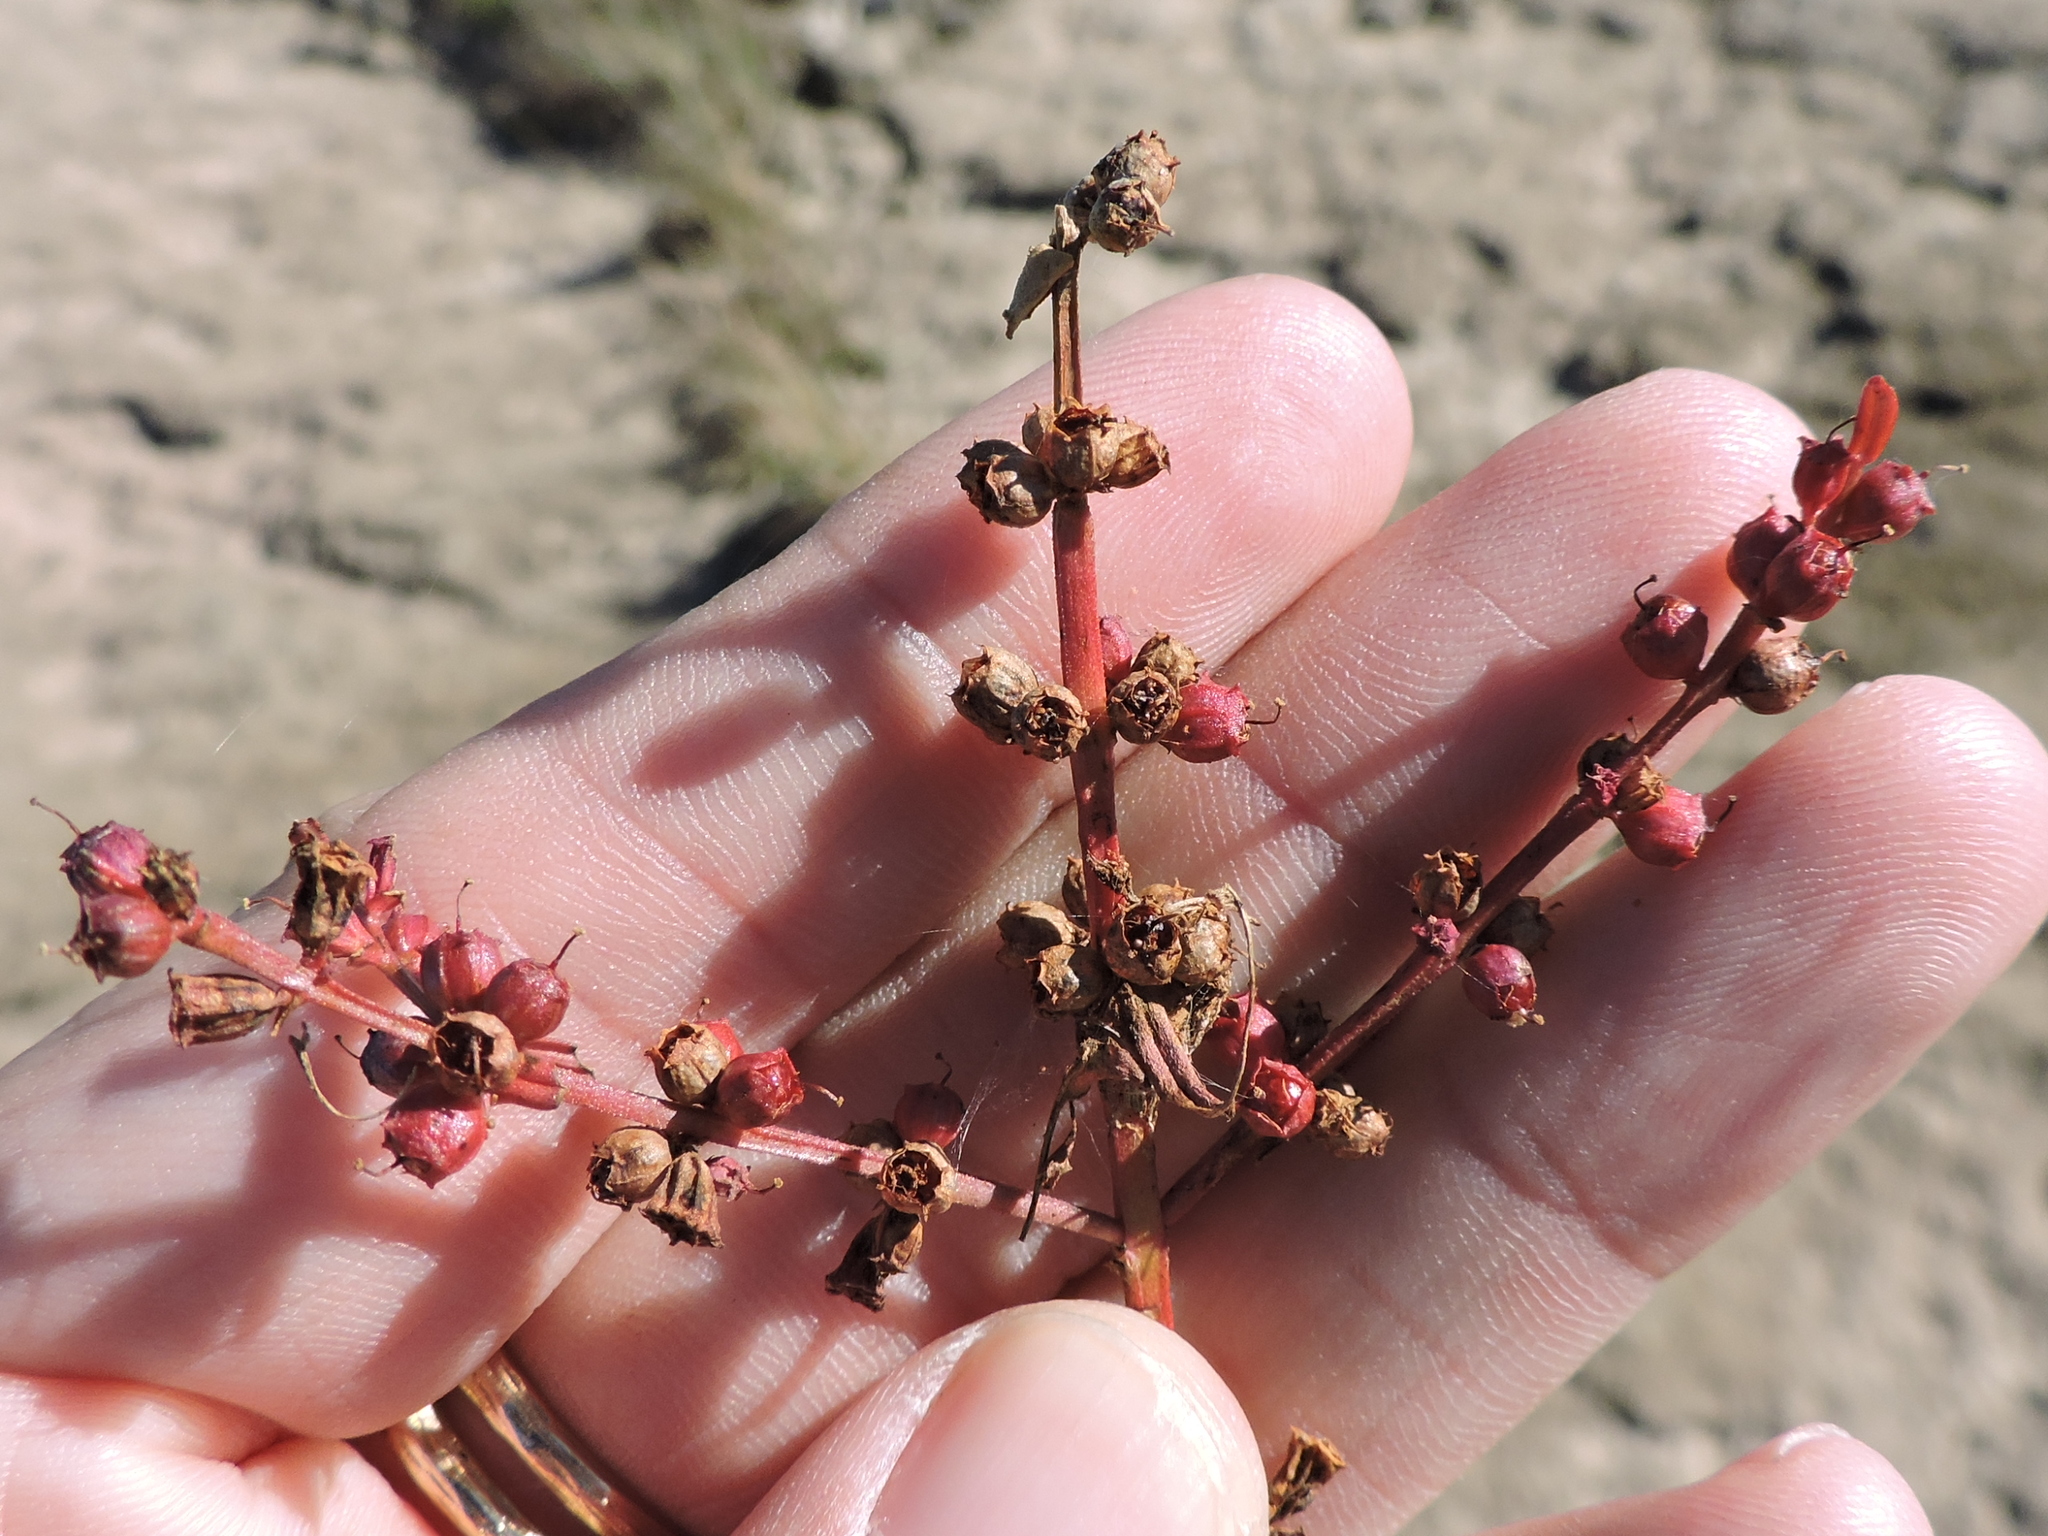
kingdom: Plantae
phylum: Tracheophyta
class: Magnoliopsida
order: Myrtales
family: Lythraceae
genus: Ammannia
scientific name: Ammannia coccinea
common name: Valley redstem
